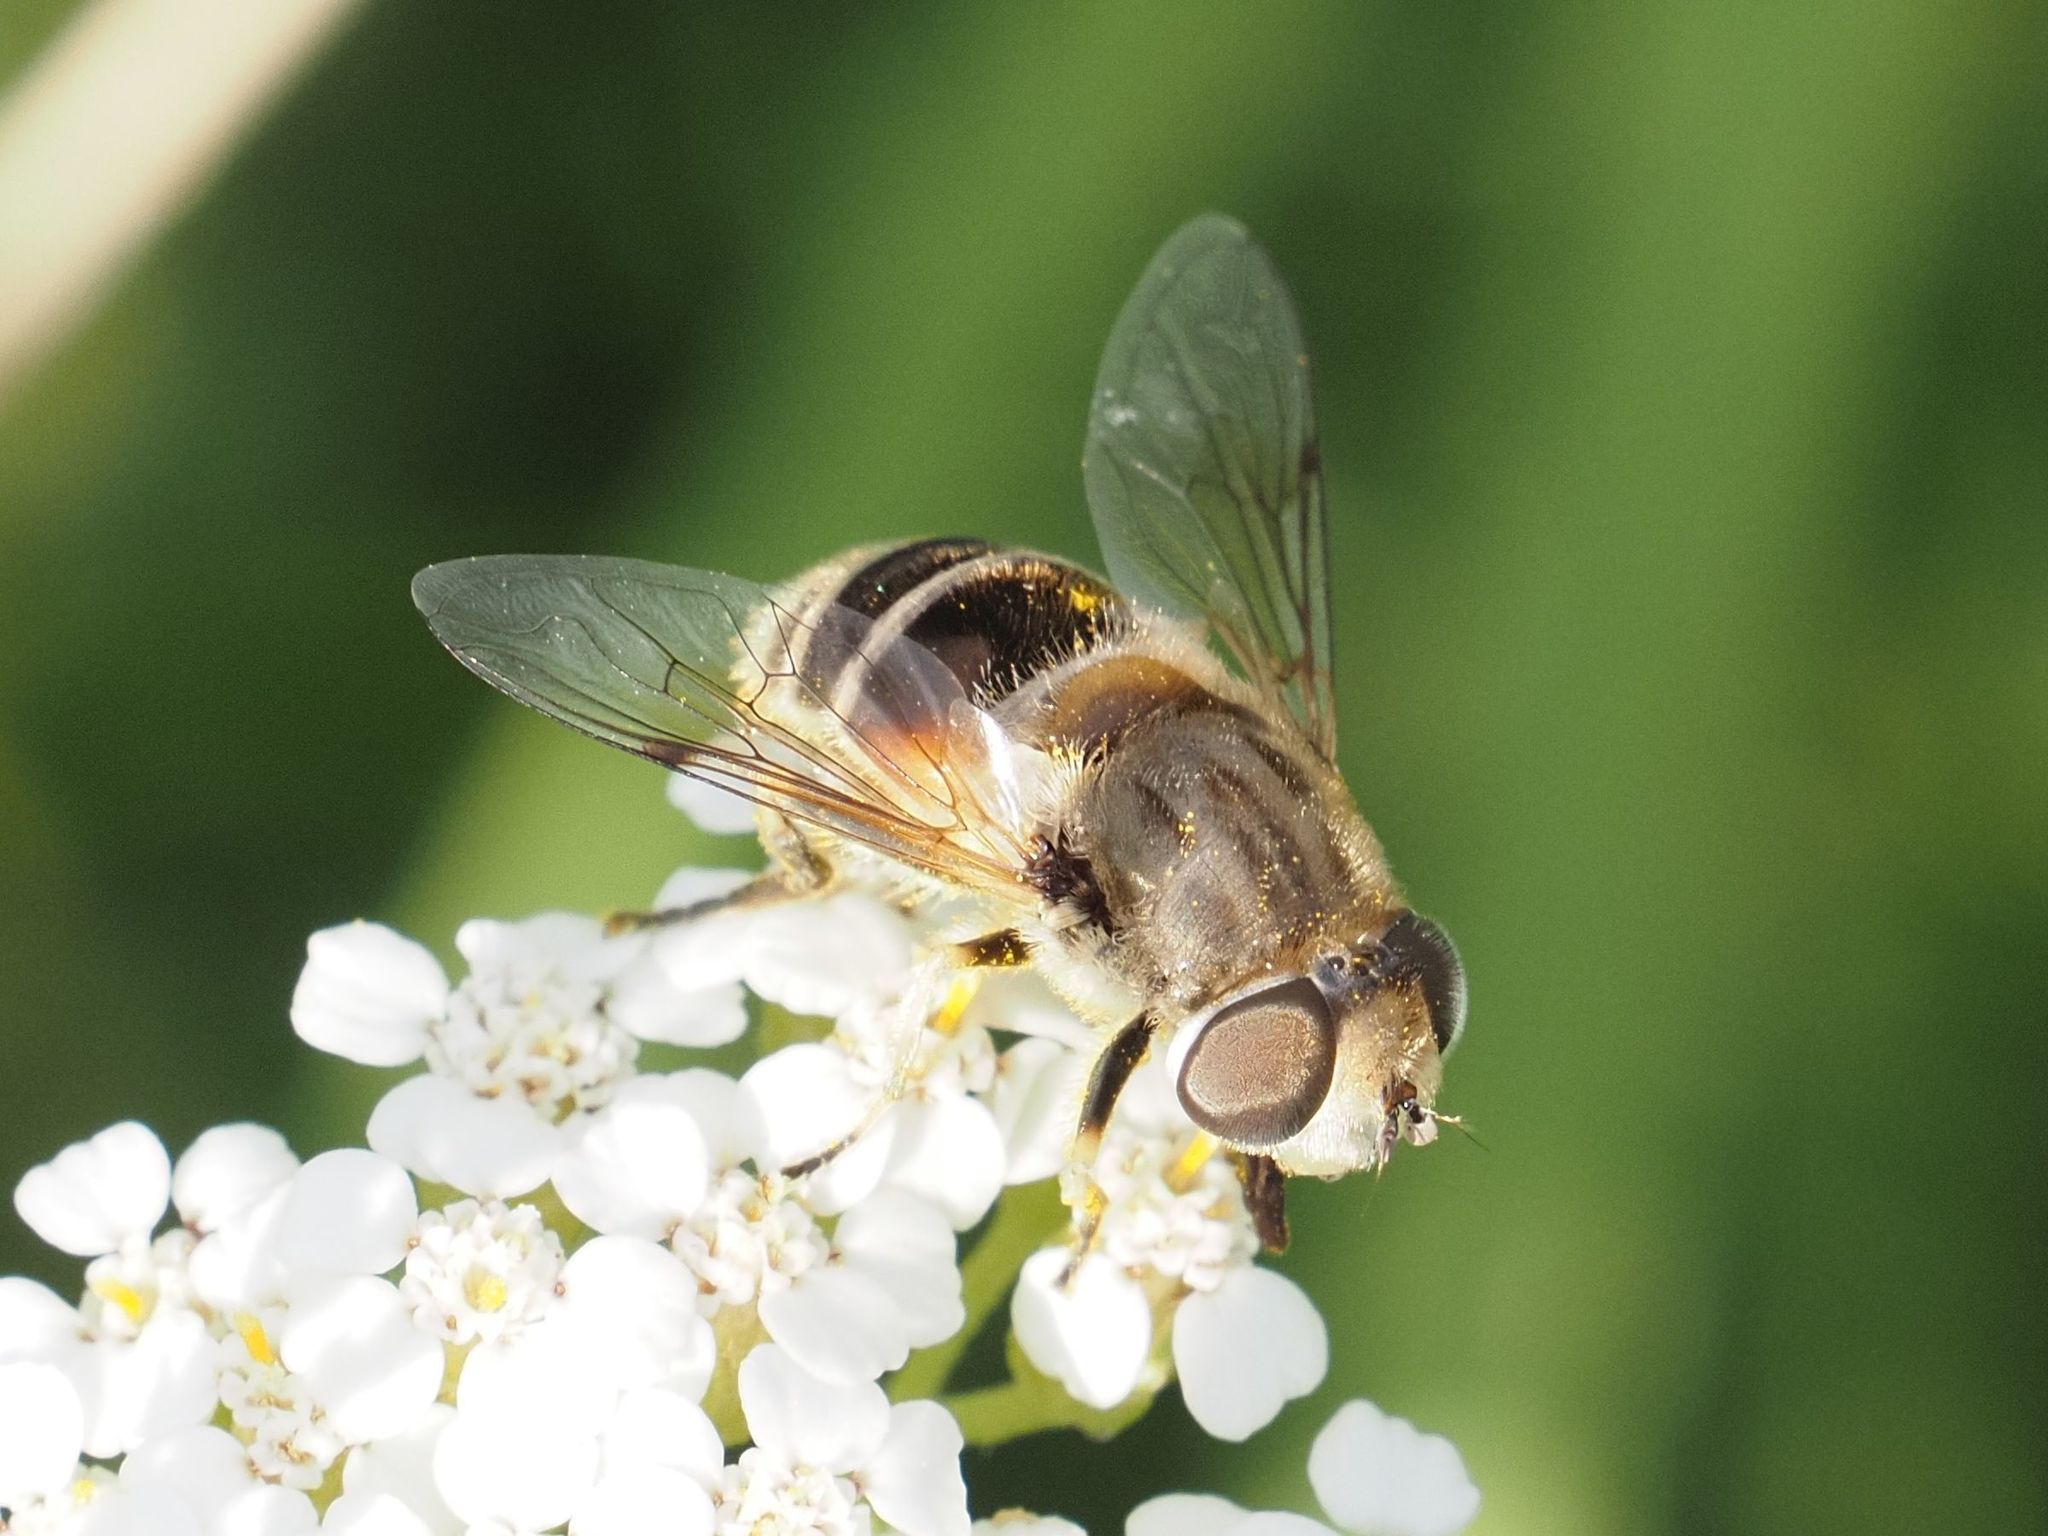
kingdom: Animalia
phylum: Arthropoda
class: Insecta
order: Diptera
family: Syrphidae
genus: Eristalis
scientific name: Eristalis arbustorum
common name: Hover fly
